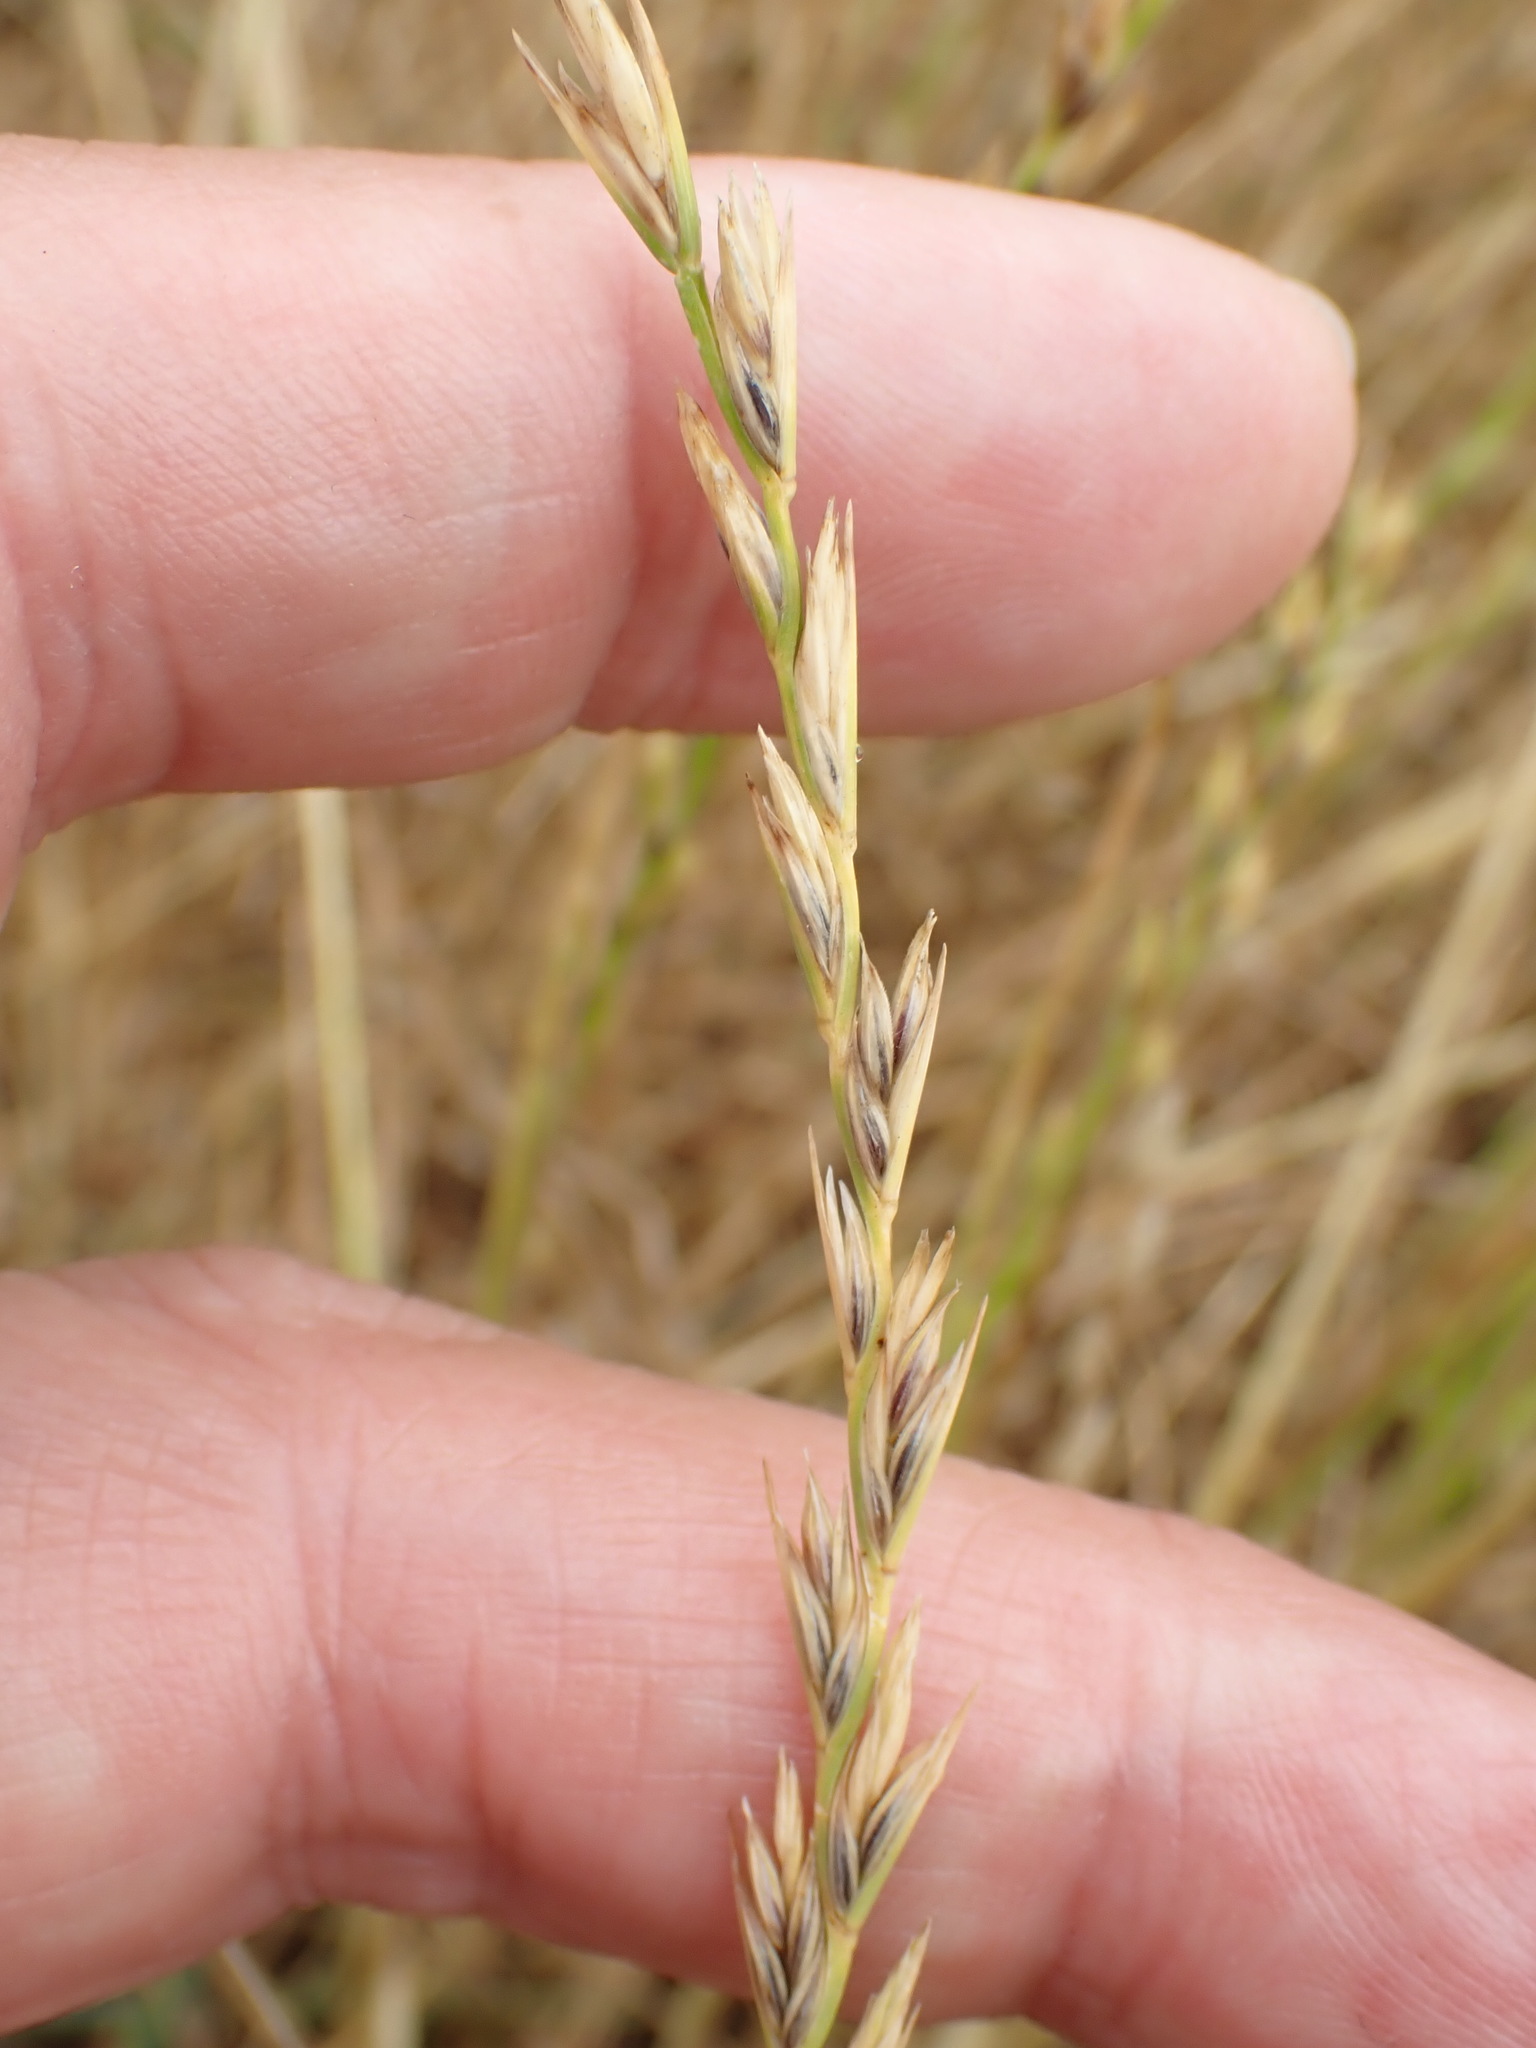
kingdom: Plantae
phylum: Tracheophyta
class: Liliopsida
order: Poales
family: Poaceae
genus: Lolium
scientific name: Lolium perenne
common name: Perennial ryegrass
